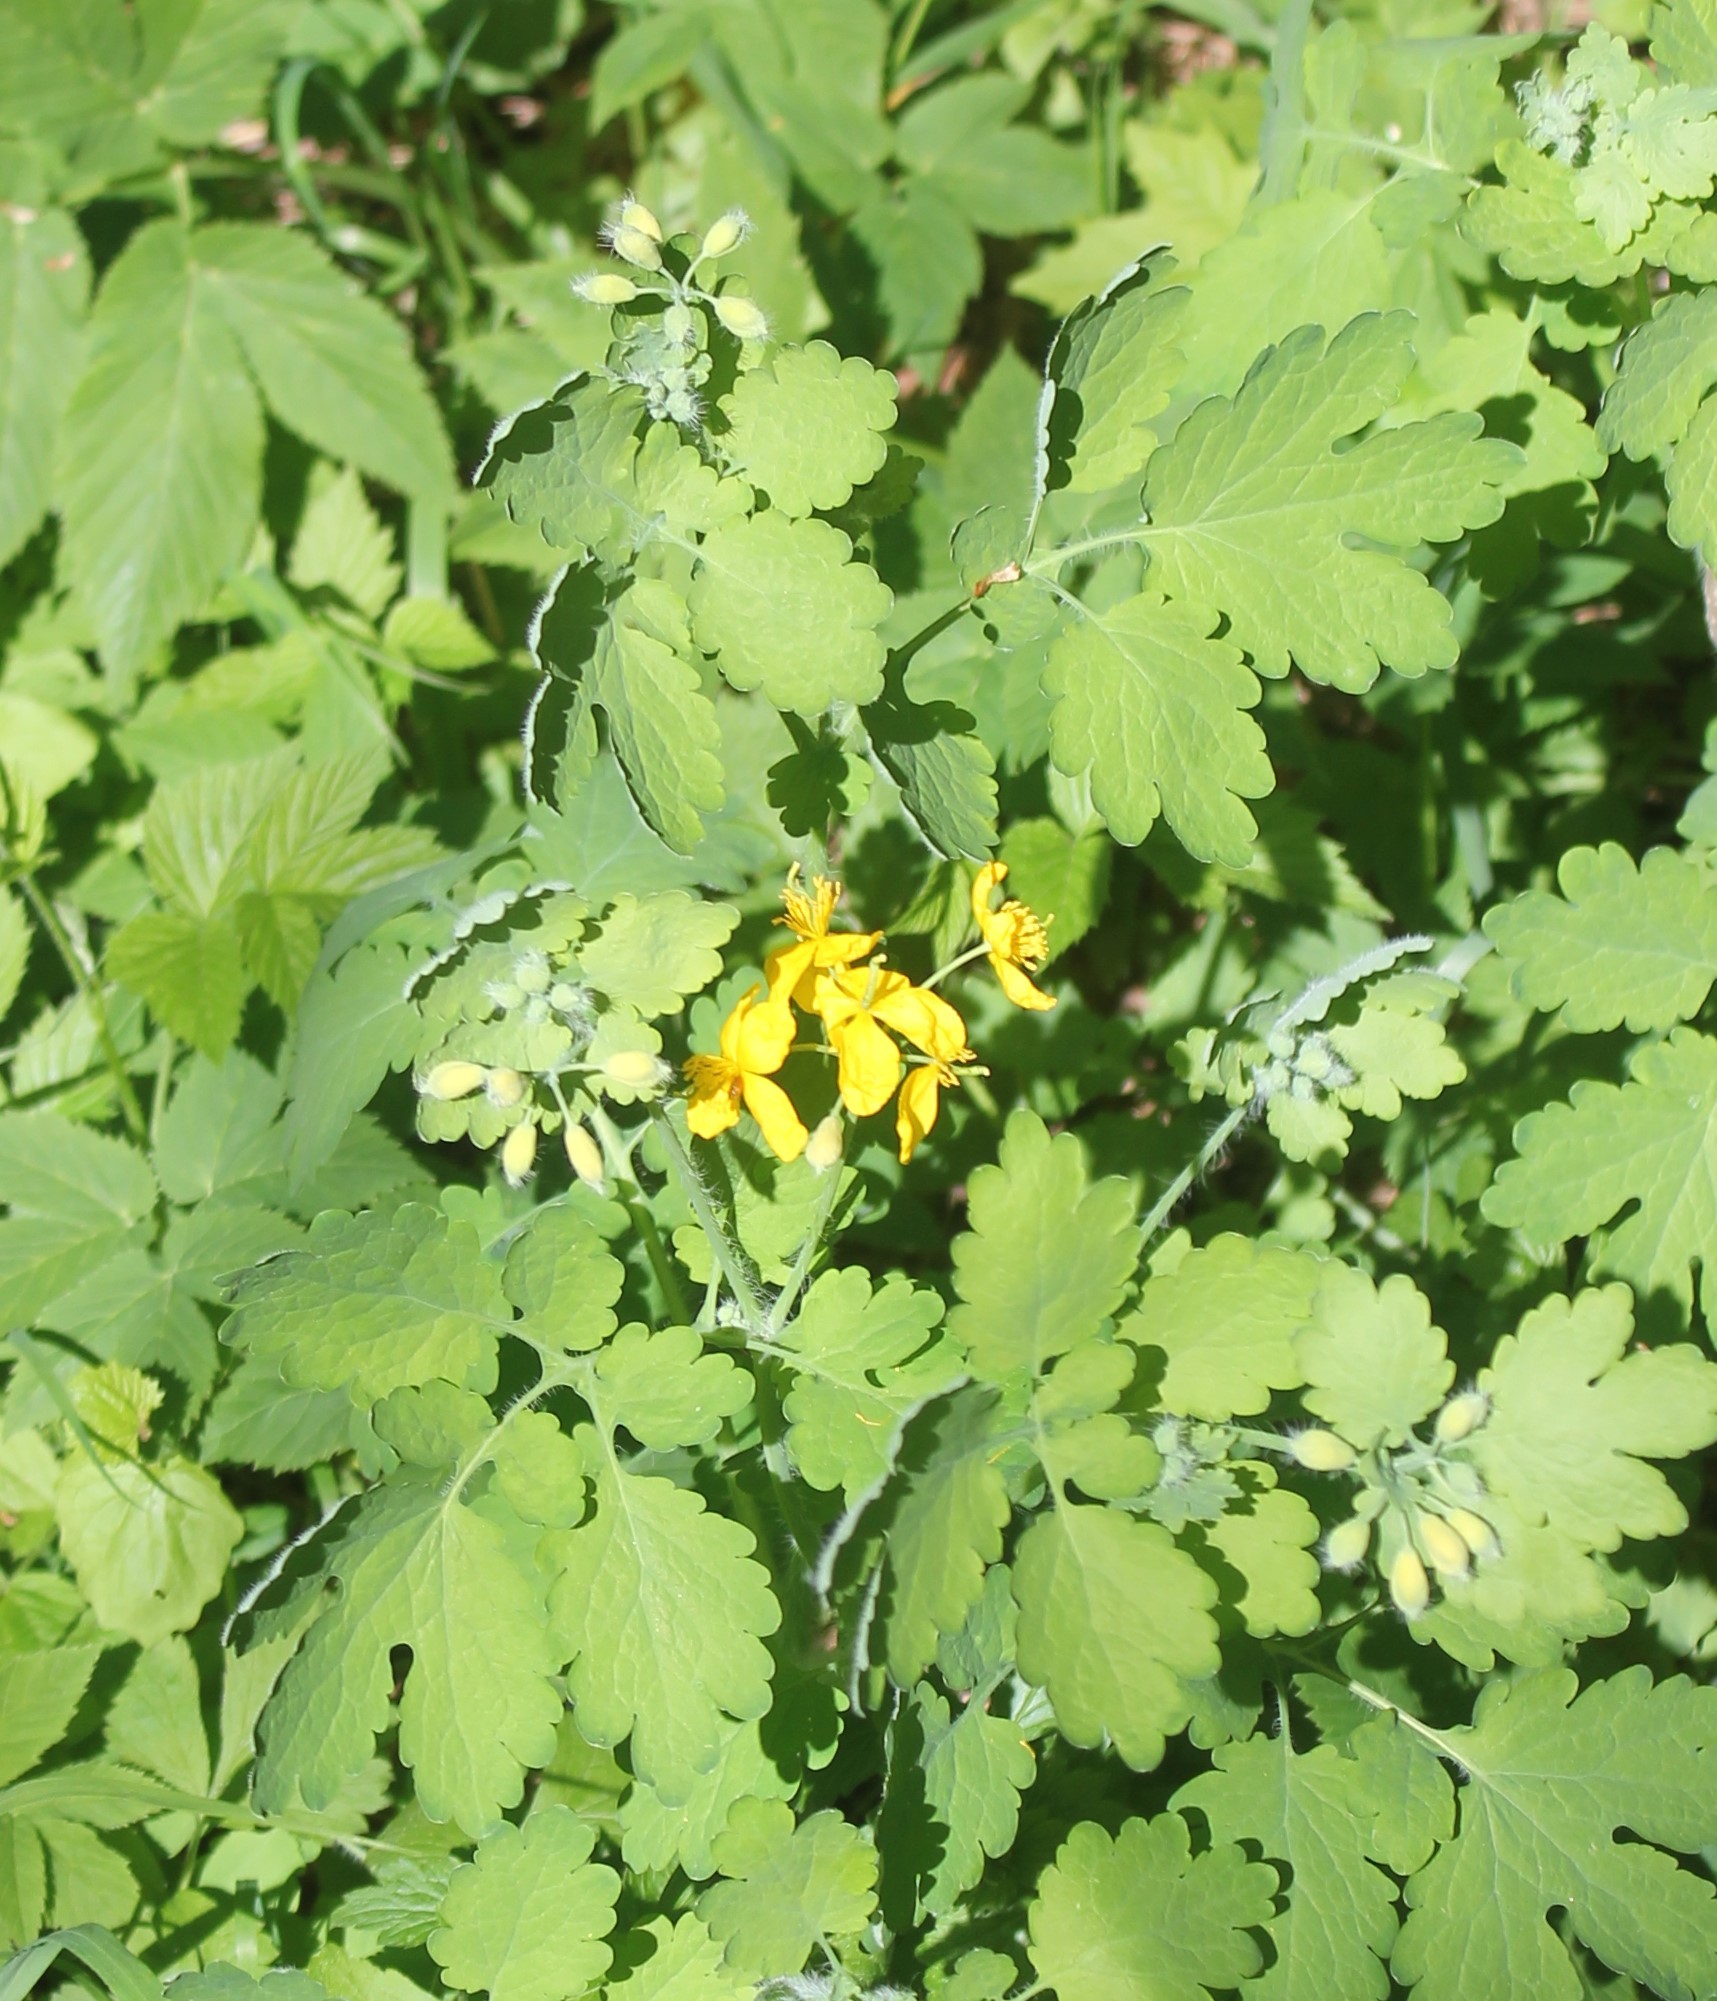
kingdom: Plantae
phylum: Tracheophyta
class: Magnoliopsida
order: Ranunculales
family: Papaveraceae
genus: Chelidonium
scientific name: Chelidonium majus
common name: Greater celandine
